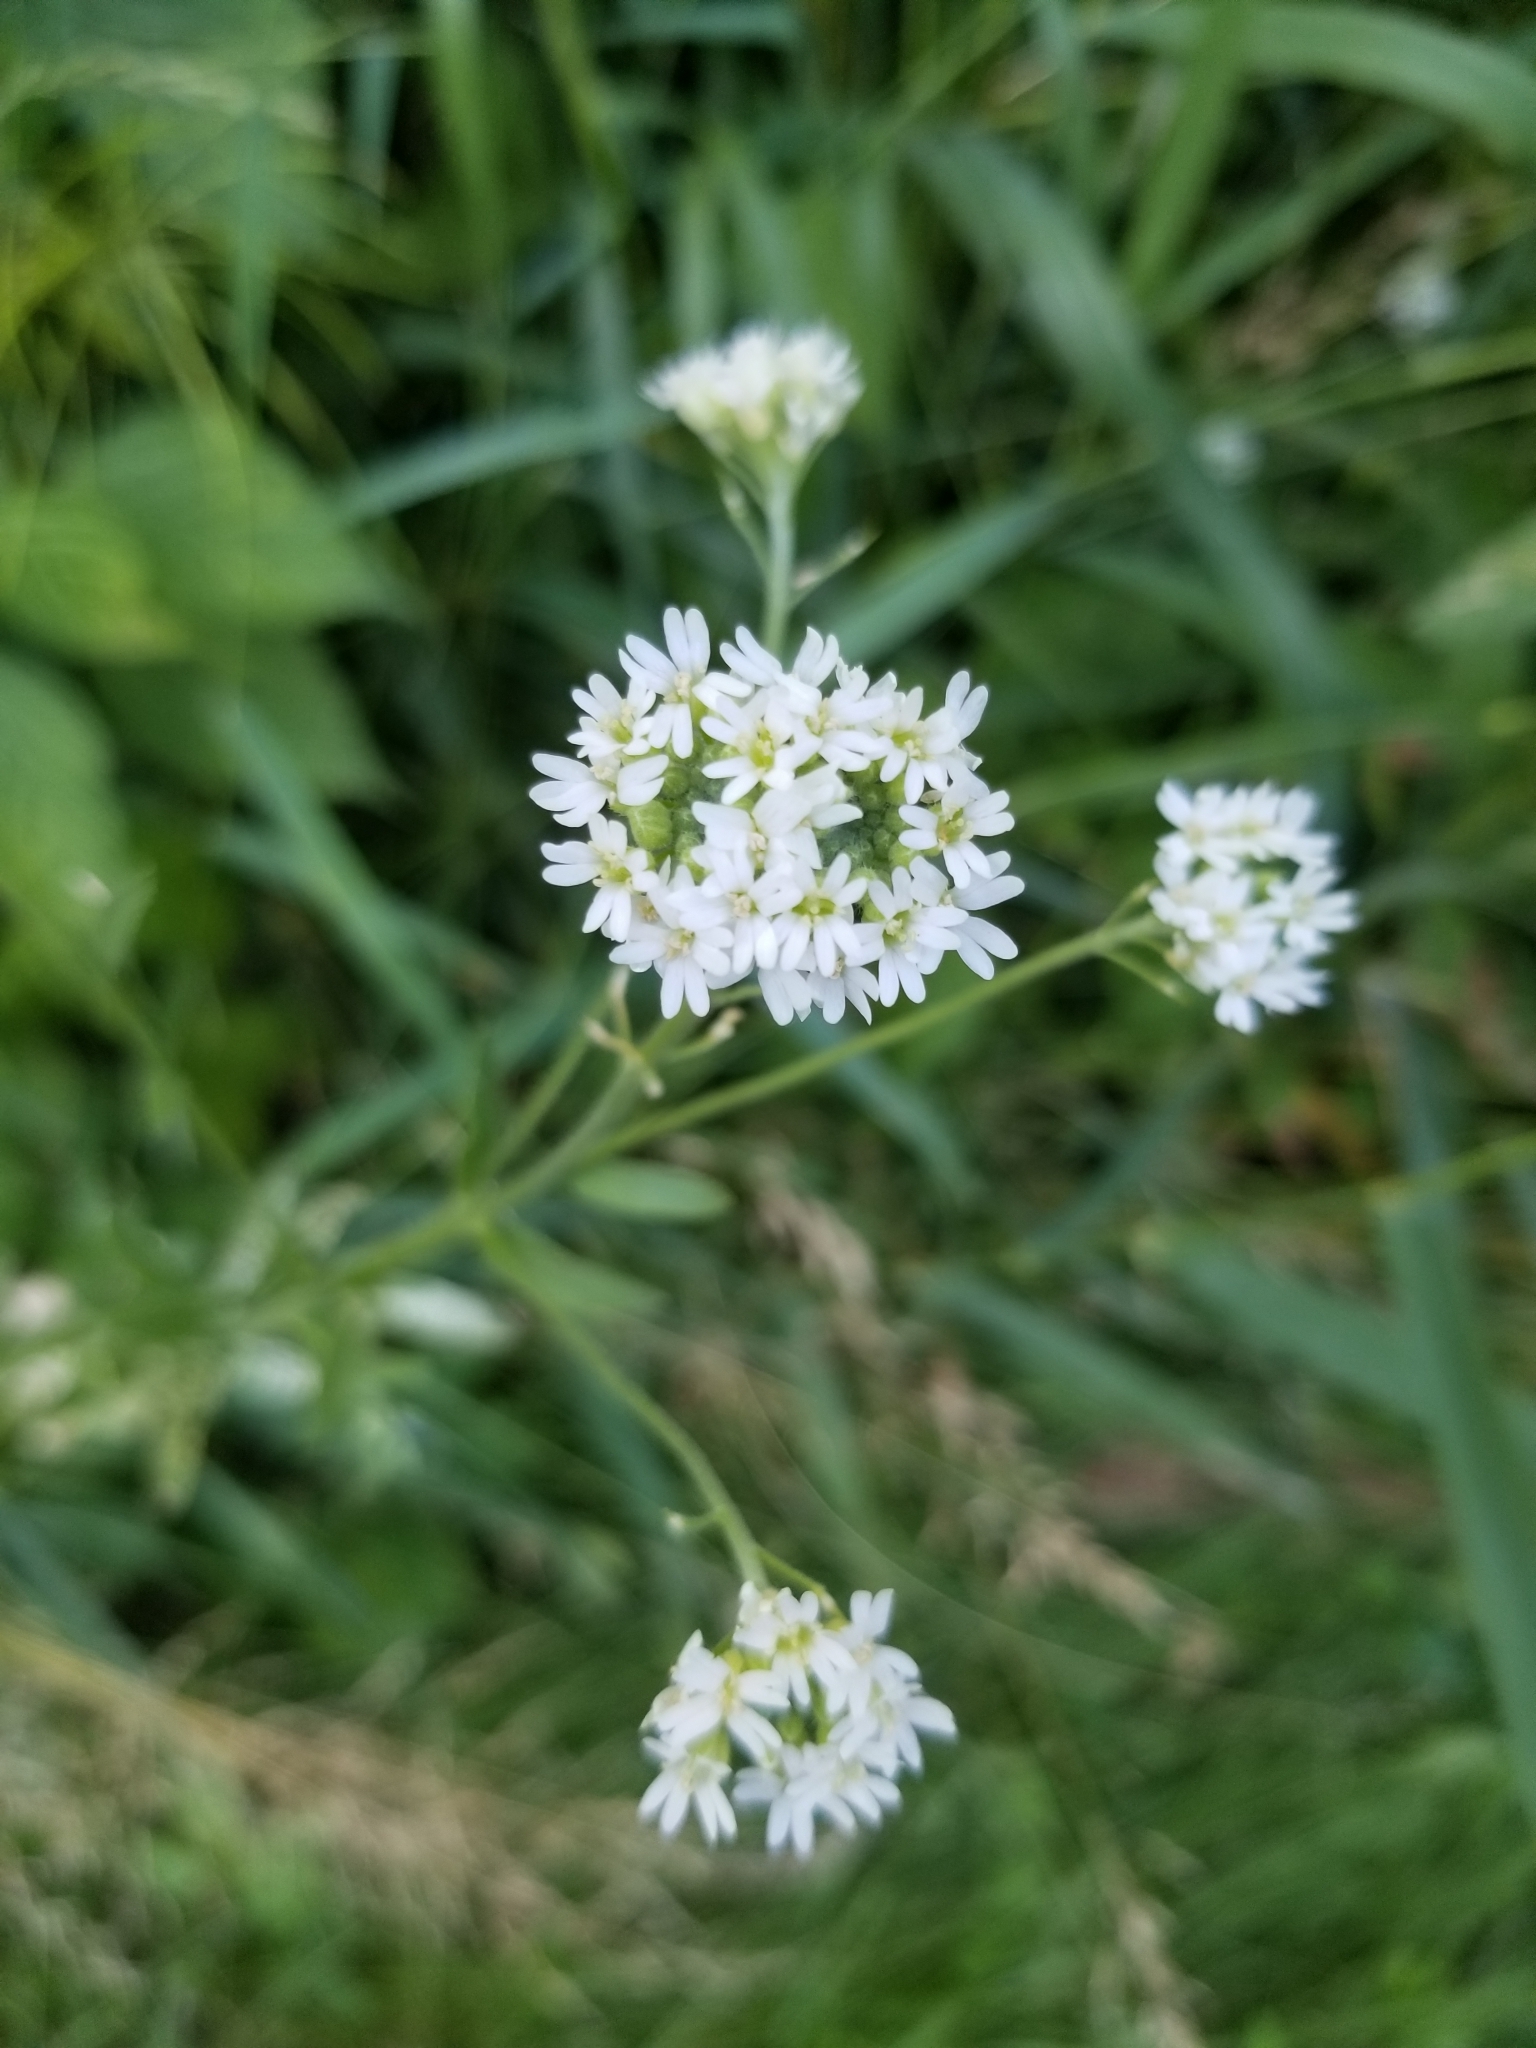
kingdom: Plantae
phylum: Tracheophyta
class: Magnoliopsida
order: Brassicales
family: Brassicaceae
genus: Berteroa
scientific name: Berteroa incana
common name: Hoary alison
